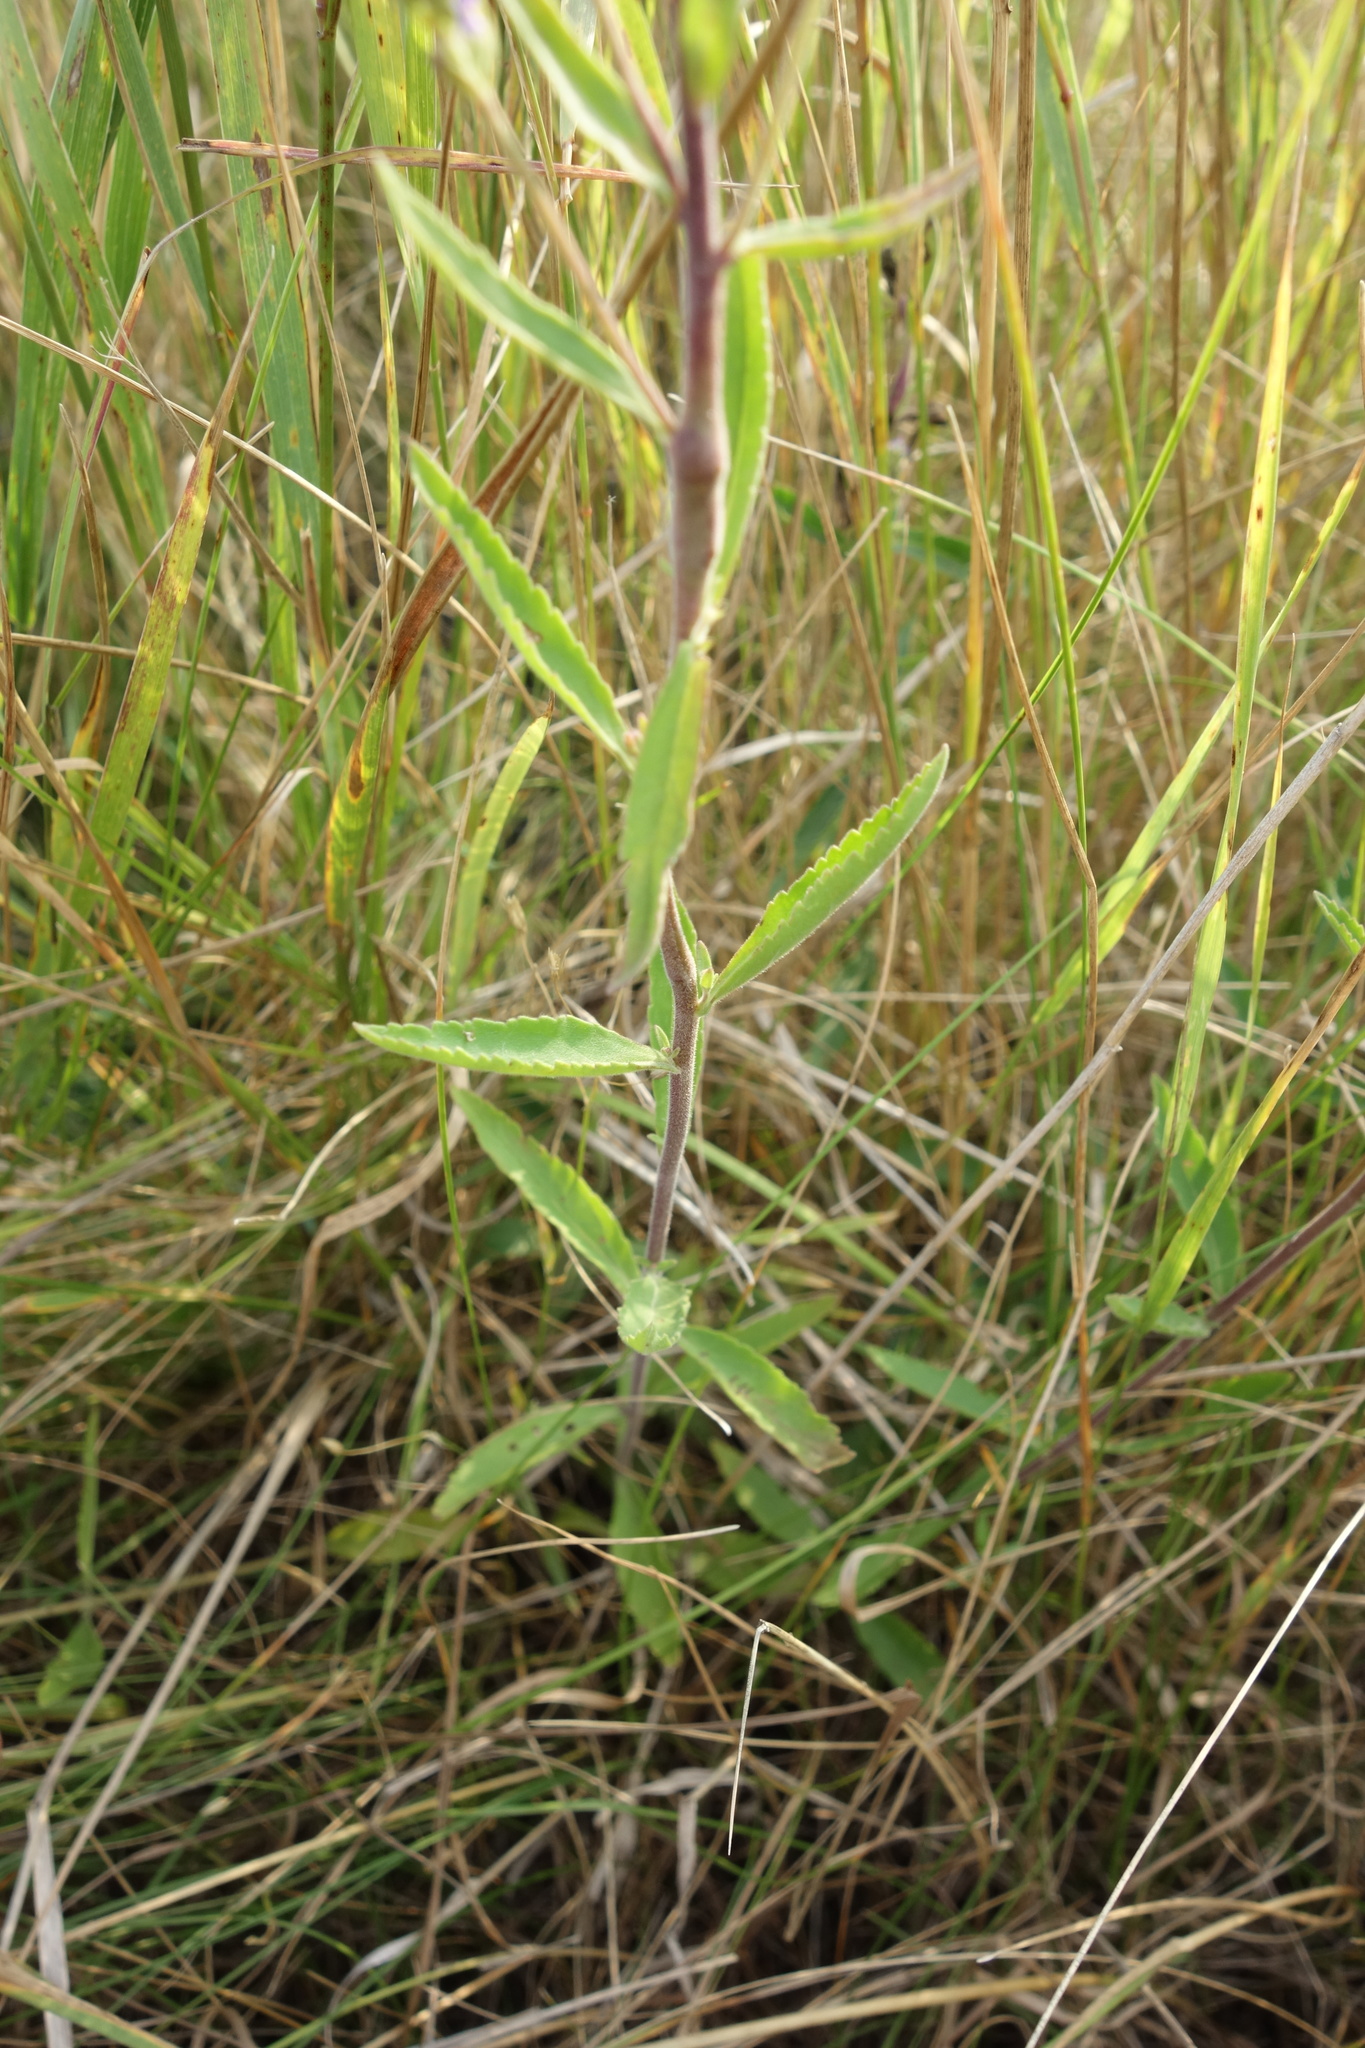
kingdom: Plantae
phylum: Tracheophyta
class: Magnoliopsida
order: Lamiales
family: Plantaginaceae
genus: Veronica
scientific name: Veronica spicata
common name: Spiked speedwell
